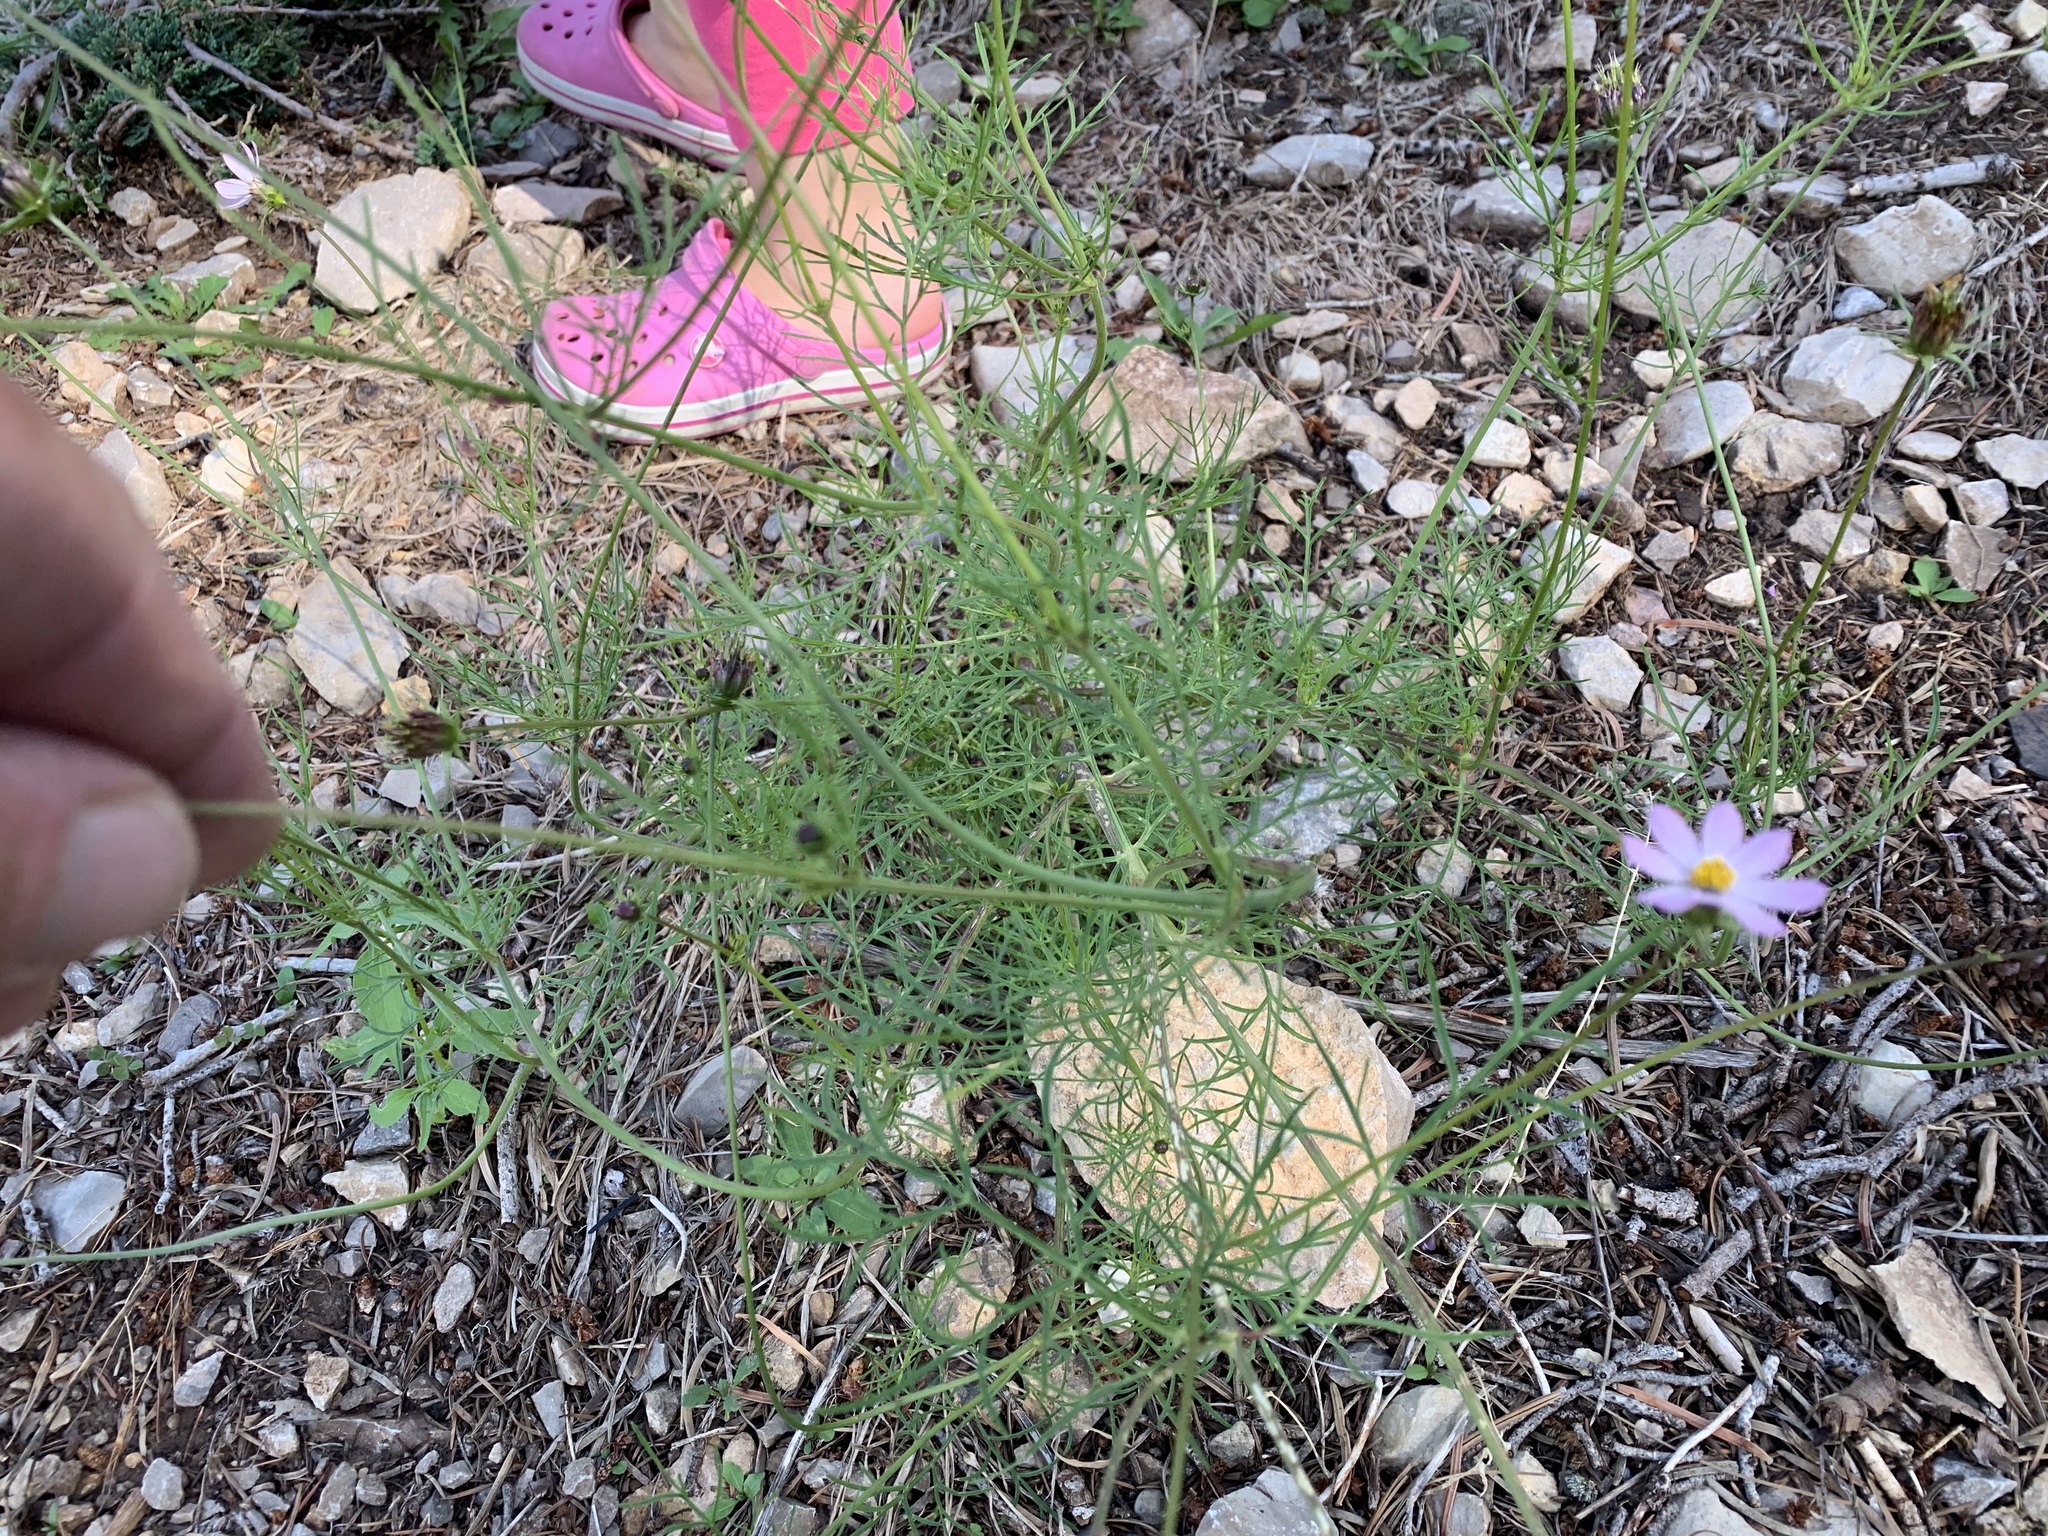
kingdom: Plantae
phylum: Tracheophyta
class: Magnoliopsida
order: Asterales
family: Asteraceae
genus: Cosmos
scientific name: Cosmos parviflorus
